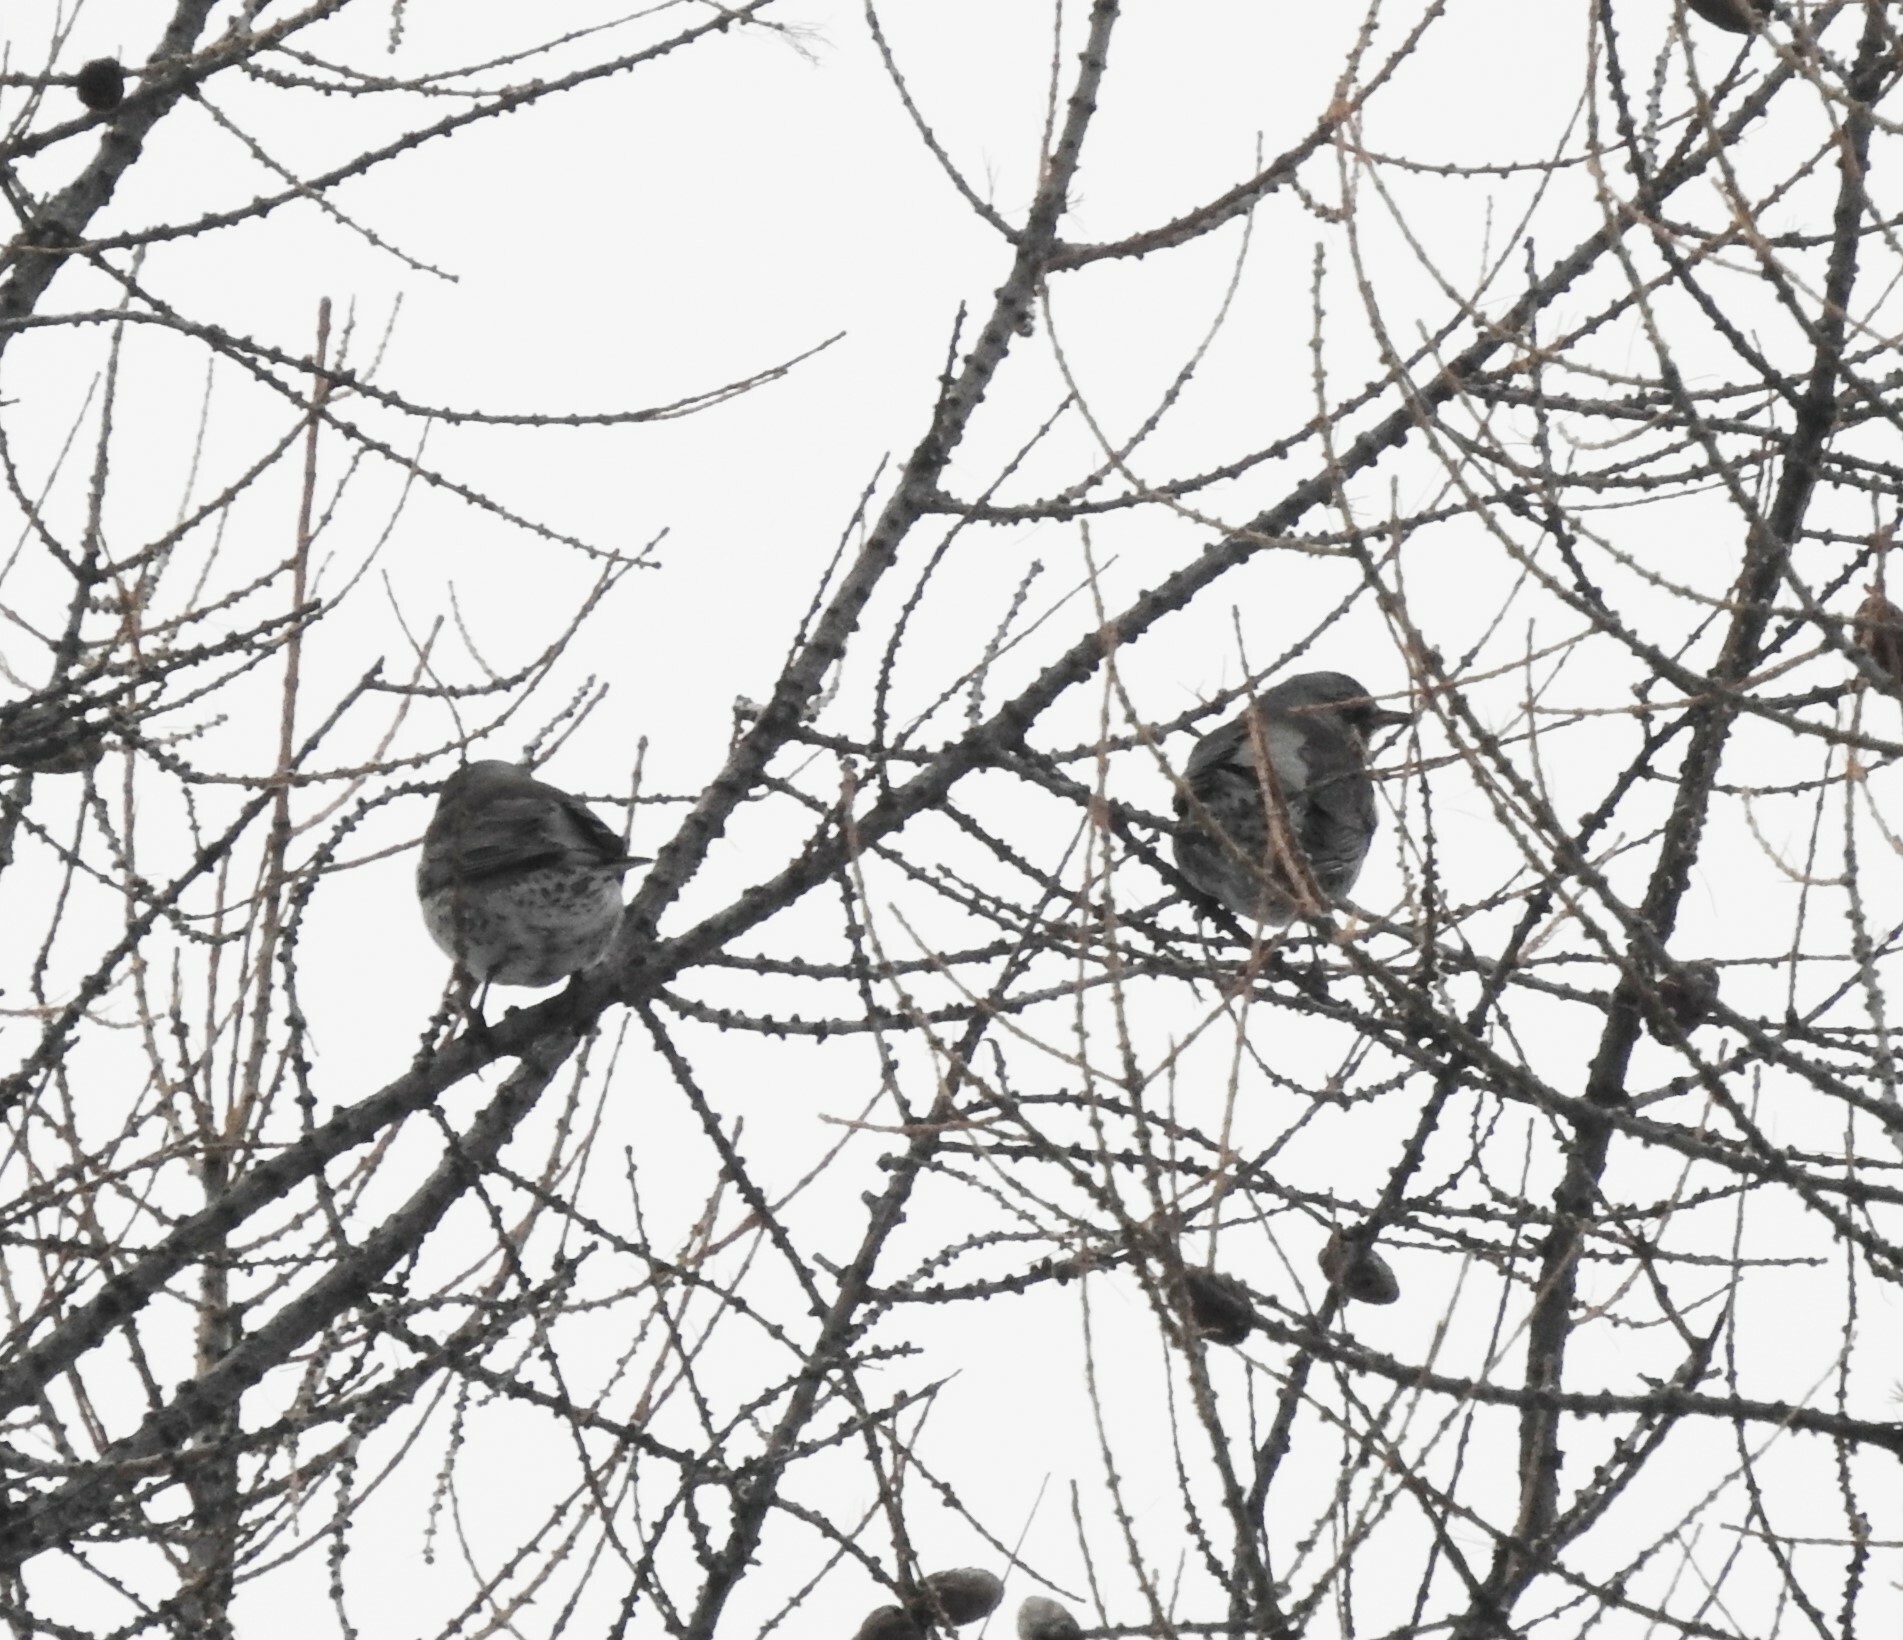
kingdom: Animalia
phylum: Chordata
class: Aves
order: Passeriformes
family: Turdidae
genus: Turdus
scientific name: Turdus pilaris
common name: Fieldfare
